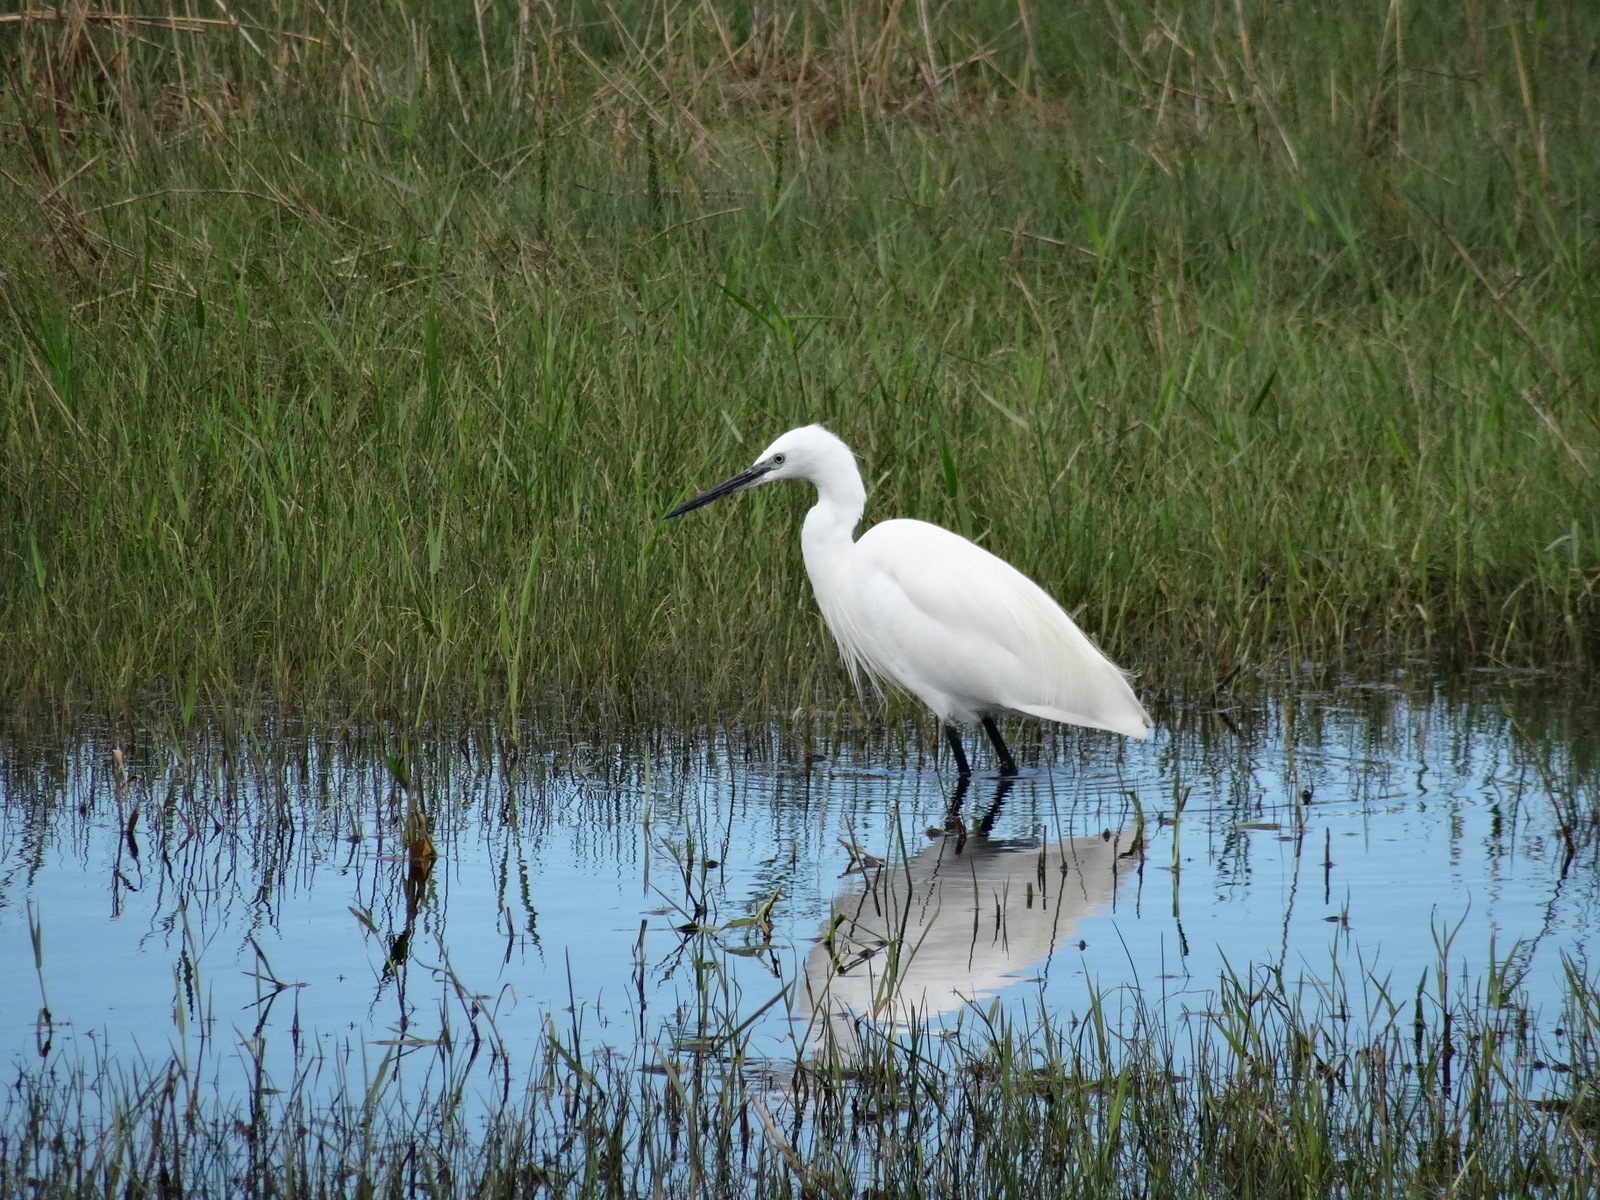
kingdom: Animalia
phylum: Chordata
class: Aves
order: Pelecaniformes
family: Ardeidae
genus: Egretta
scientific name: Egretta garzetta
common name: Little egret
